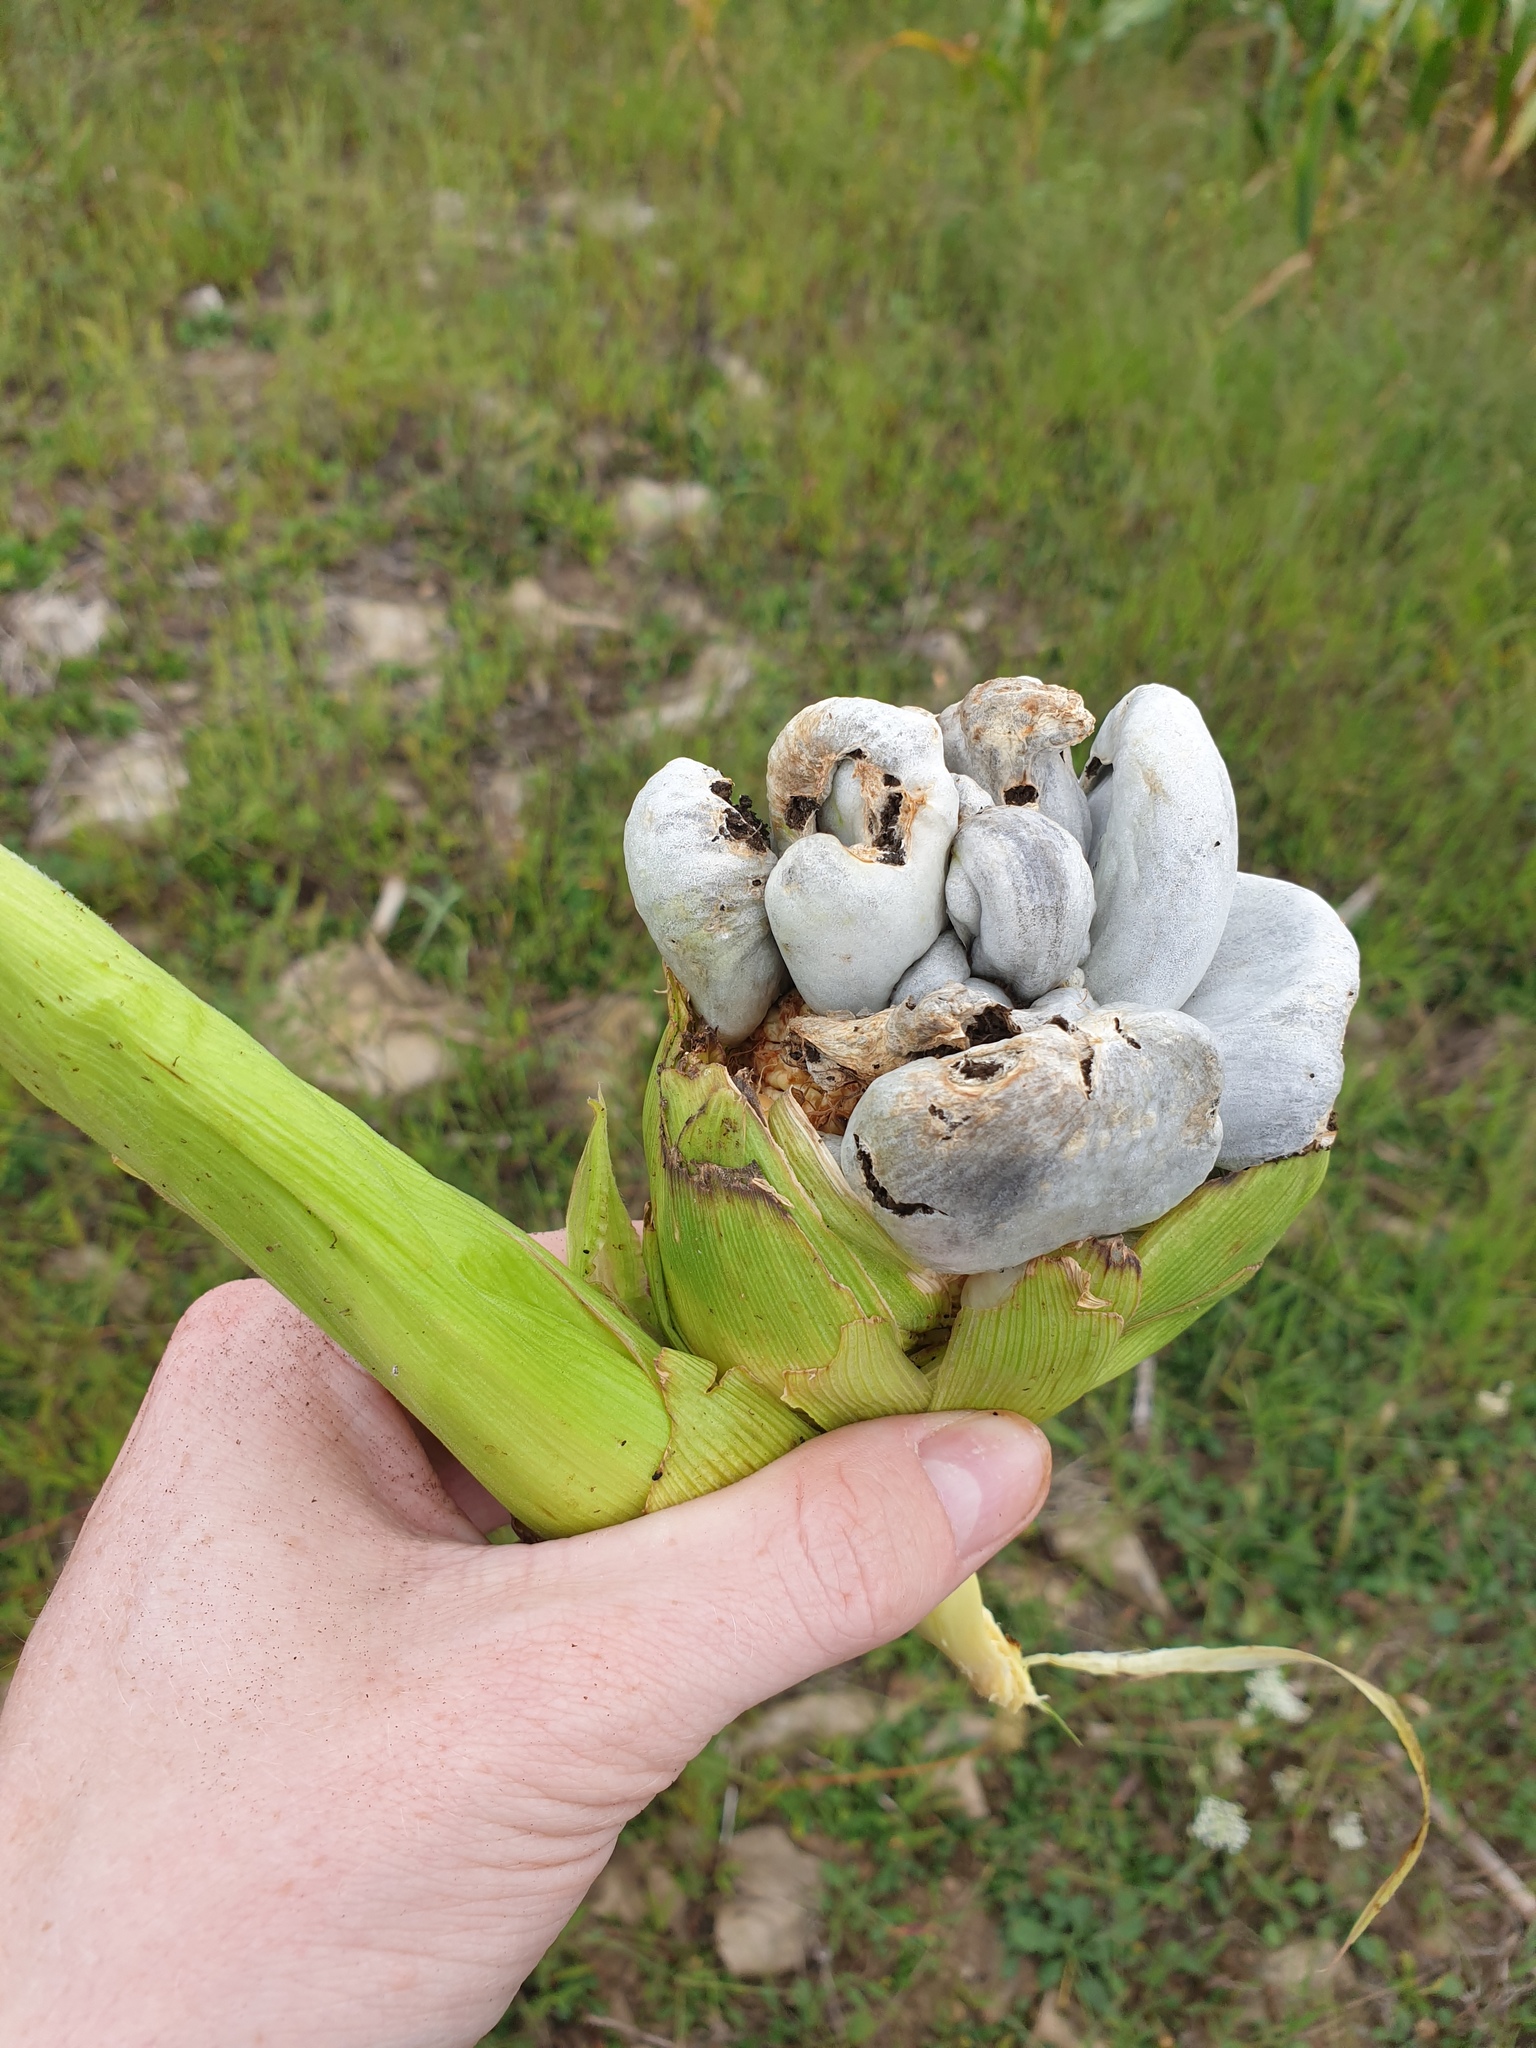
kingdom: Fungi
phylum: Basidiomycota
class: Ustilaginomycetes
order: Ustilaginales
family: Ustilaginaceae
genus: Mycosarcoma
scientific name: Mycosarcoma maydis
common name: Corn smut
